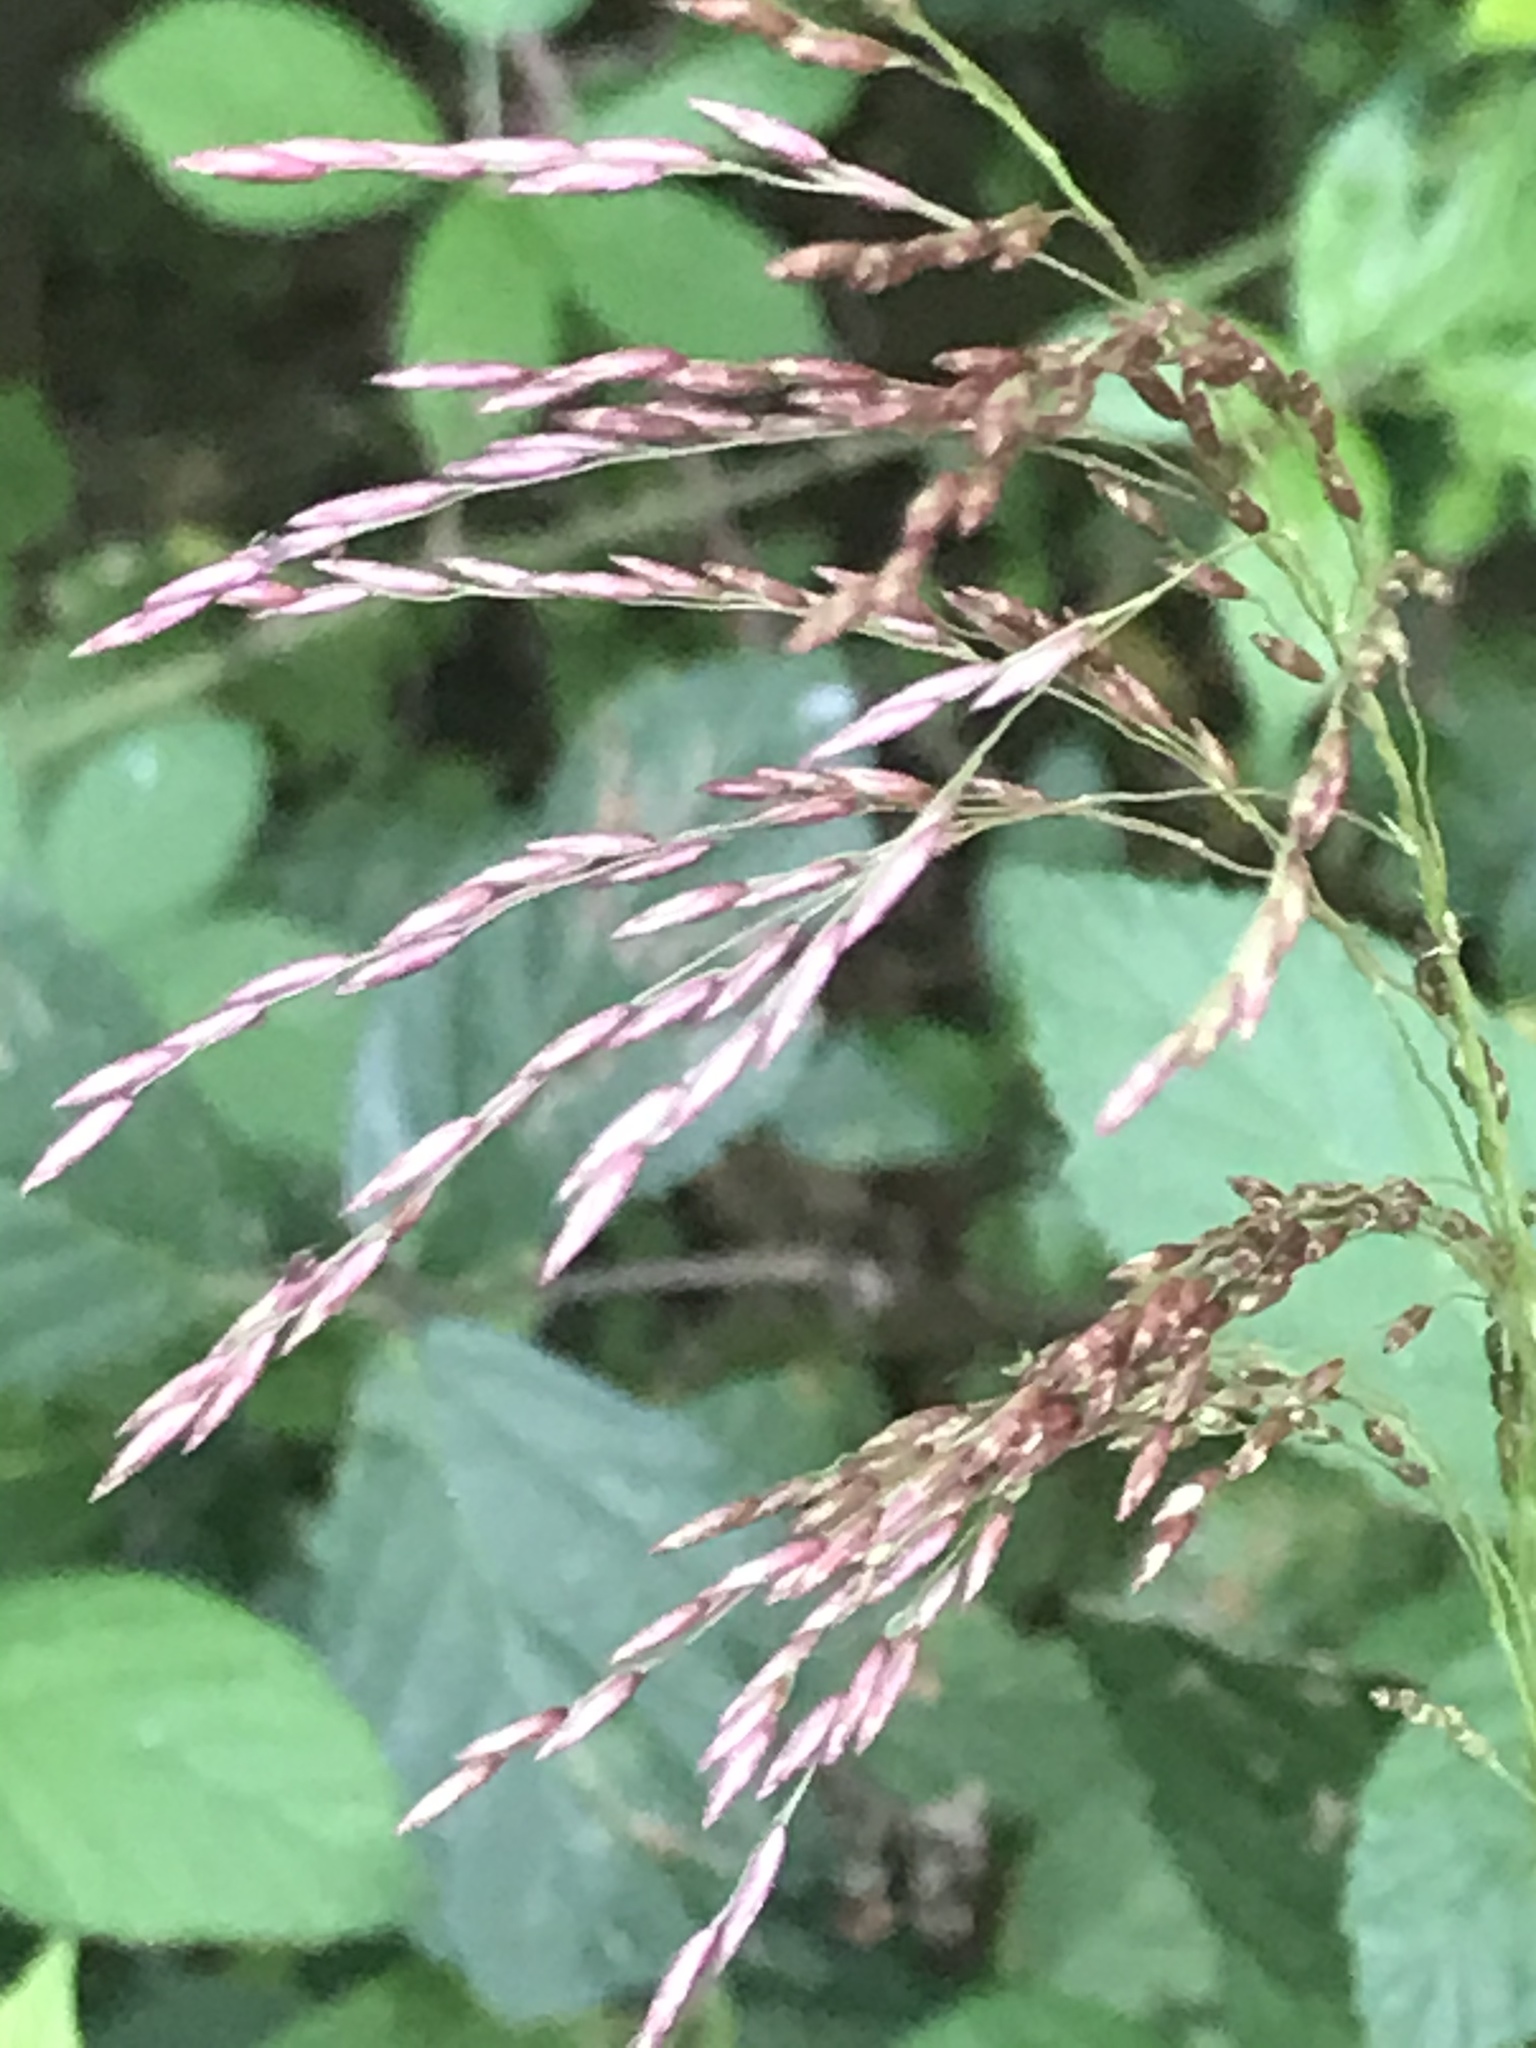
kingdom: Plantae
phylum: Tracheophyta
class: Liliopsida
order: Poales
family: Poaceae
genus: Tridens
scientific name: Tridens flavus
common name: Purpletop
